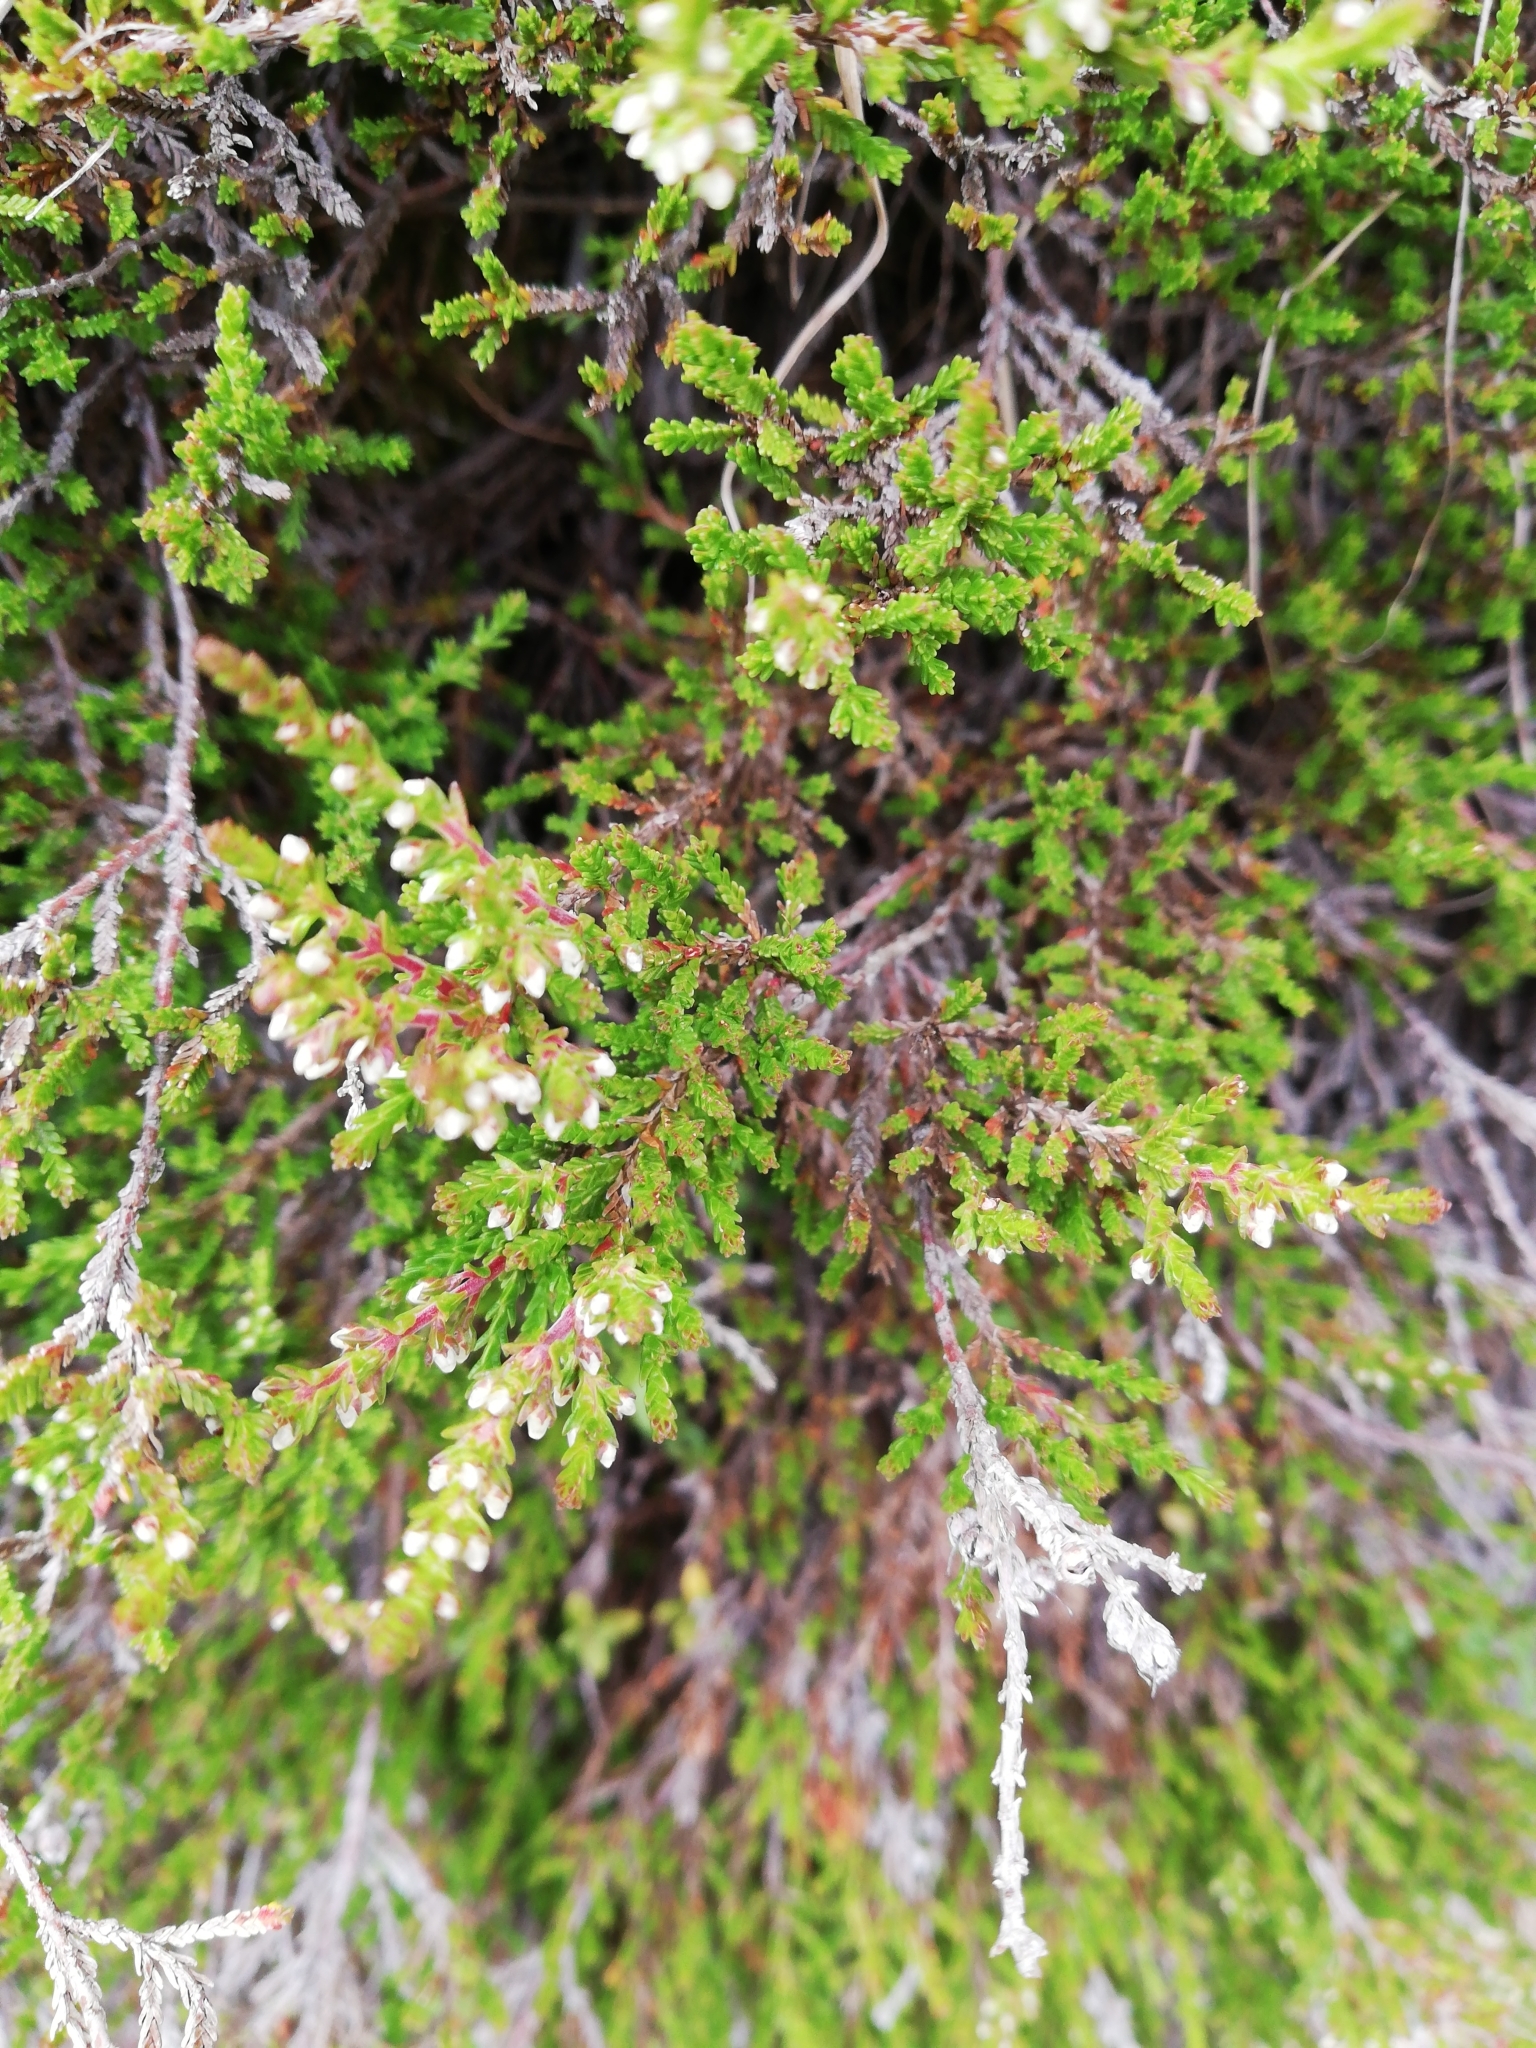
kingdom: Plantae
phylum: Tracheophyta
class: Magnoliopsida
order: Ericales
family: Ericaceae
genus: Calluna
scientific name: Calluna vulgaris
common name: Heather
